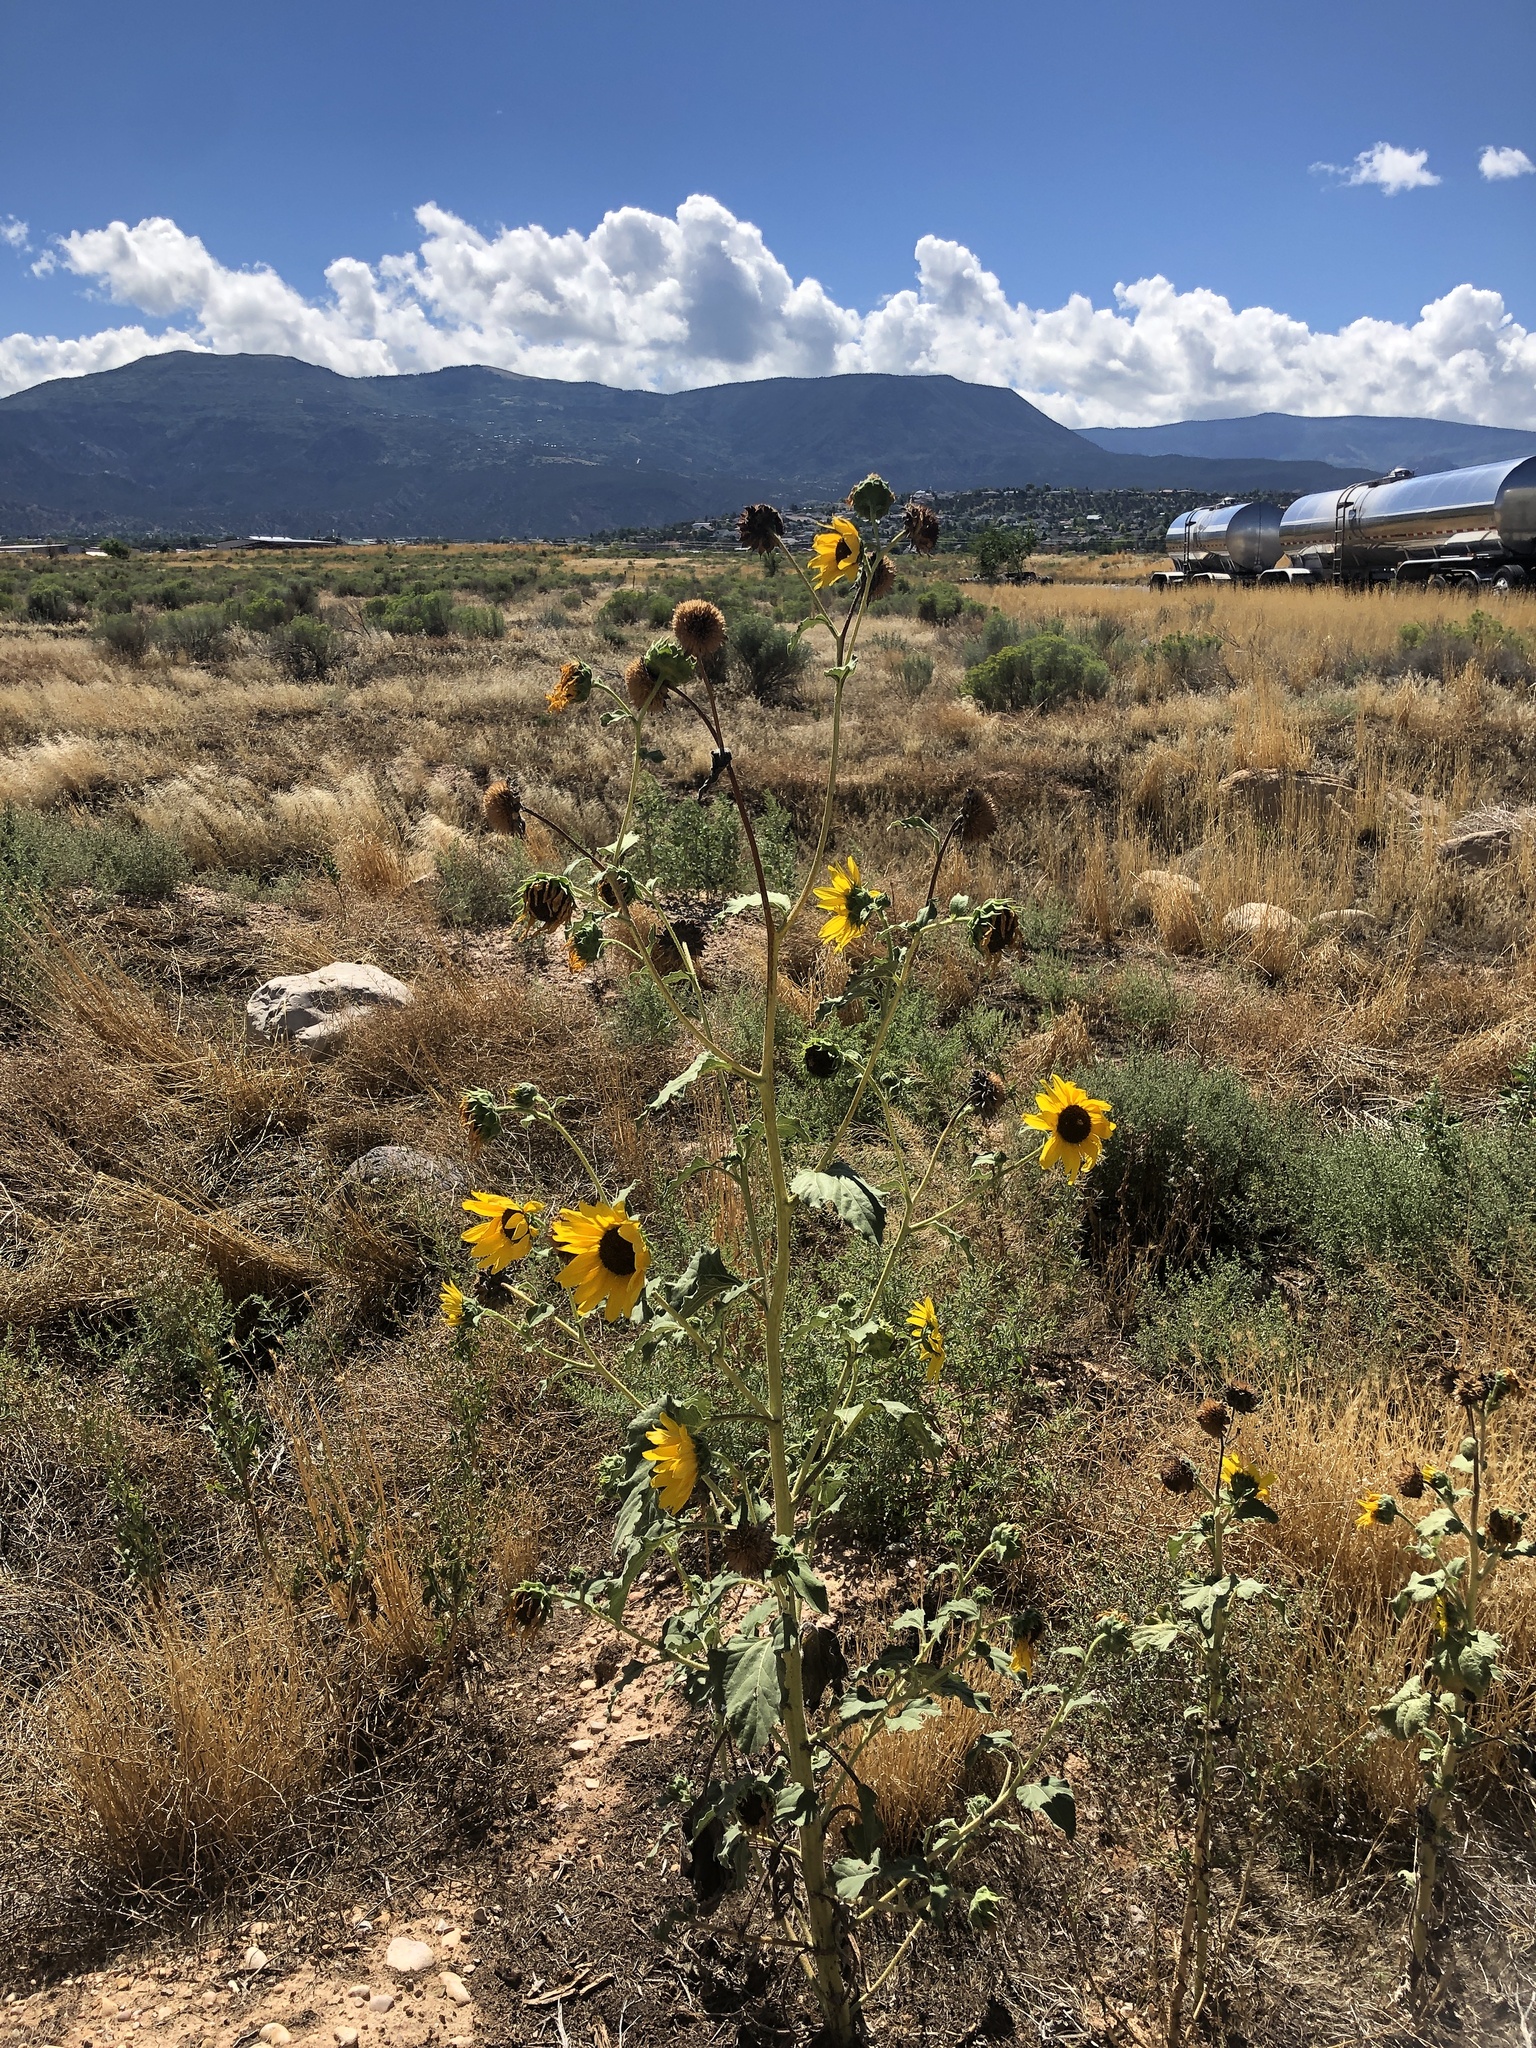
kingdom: Plantae
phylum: Tracheophyta
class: Magnoliopsida
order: Asterales
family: Asteraceae
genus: Helianthus
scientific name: Helianthus annuus
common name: Sunflower
